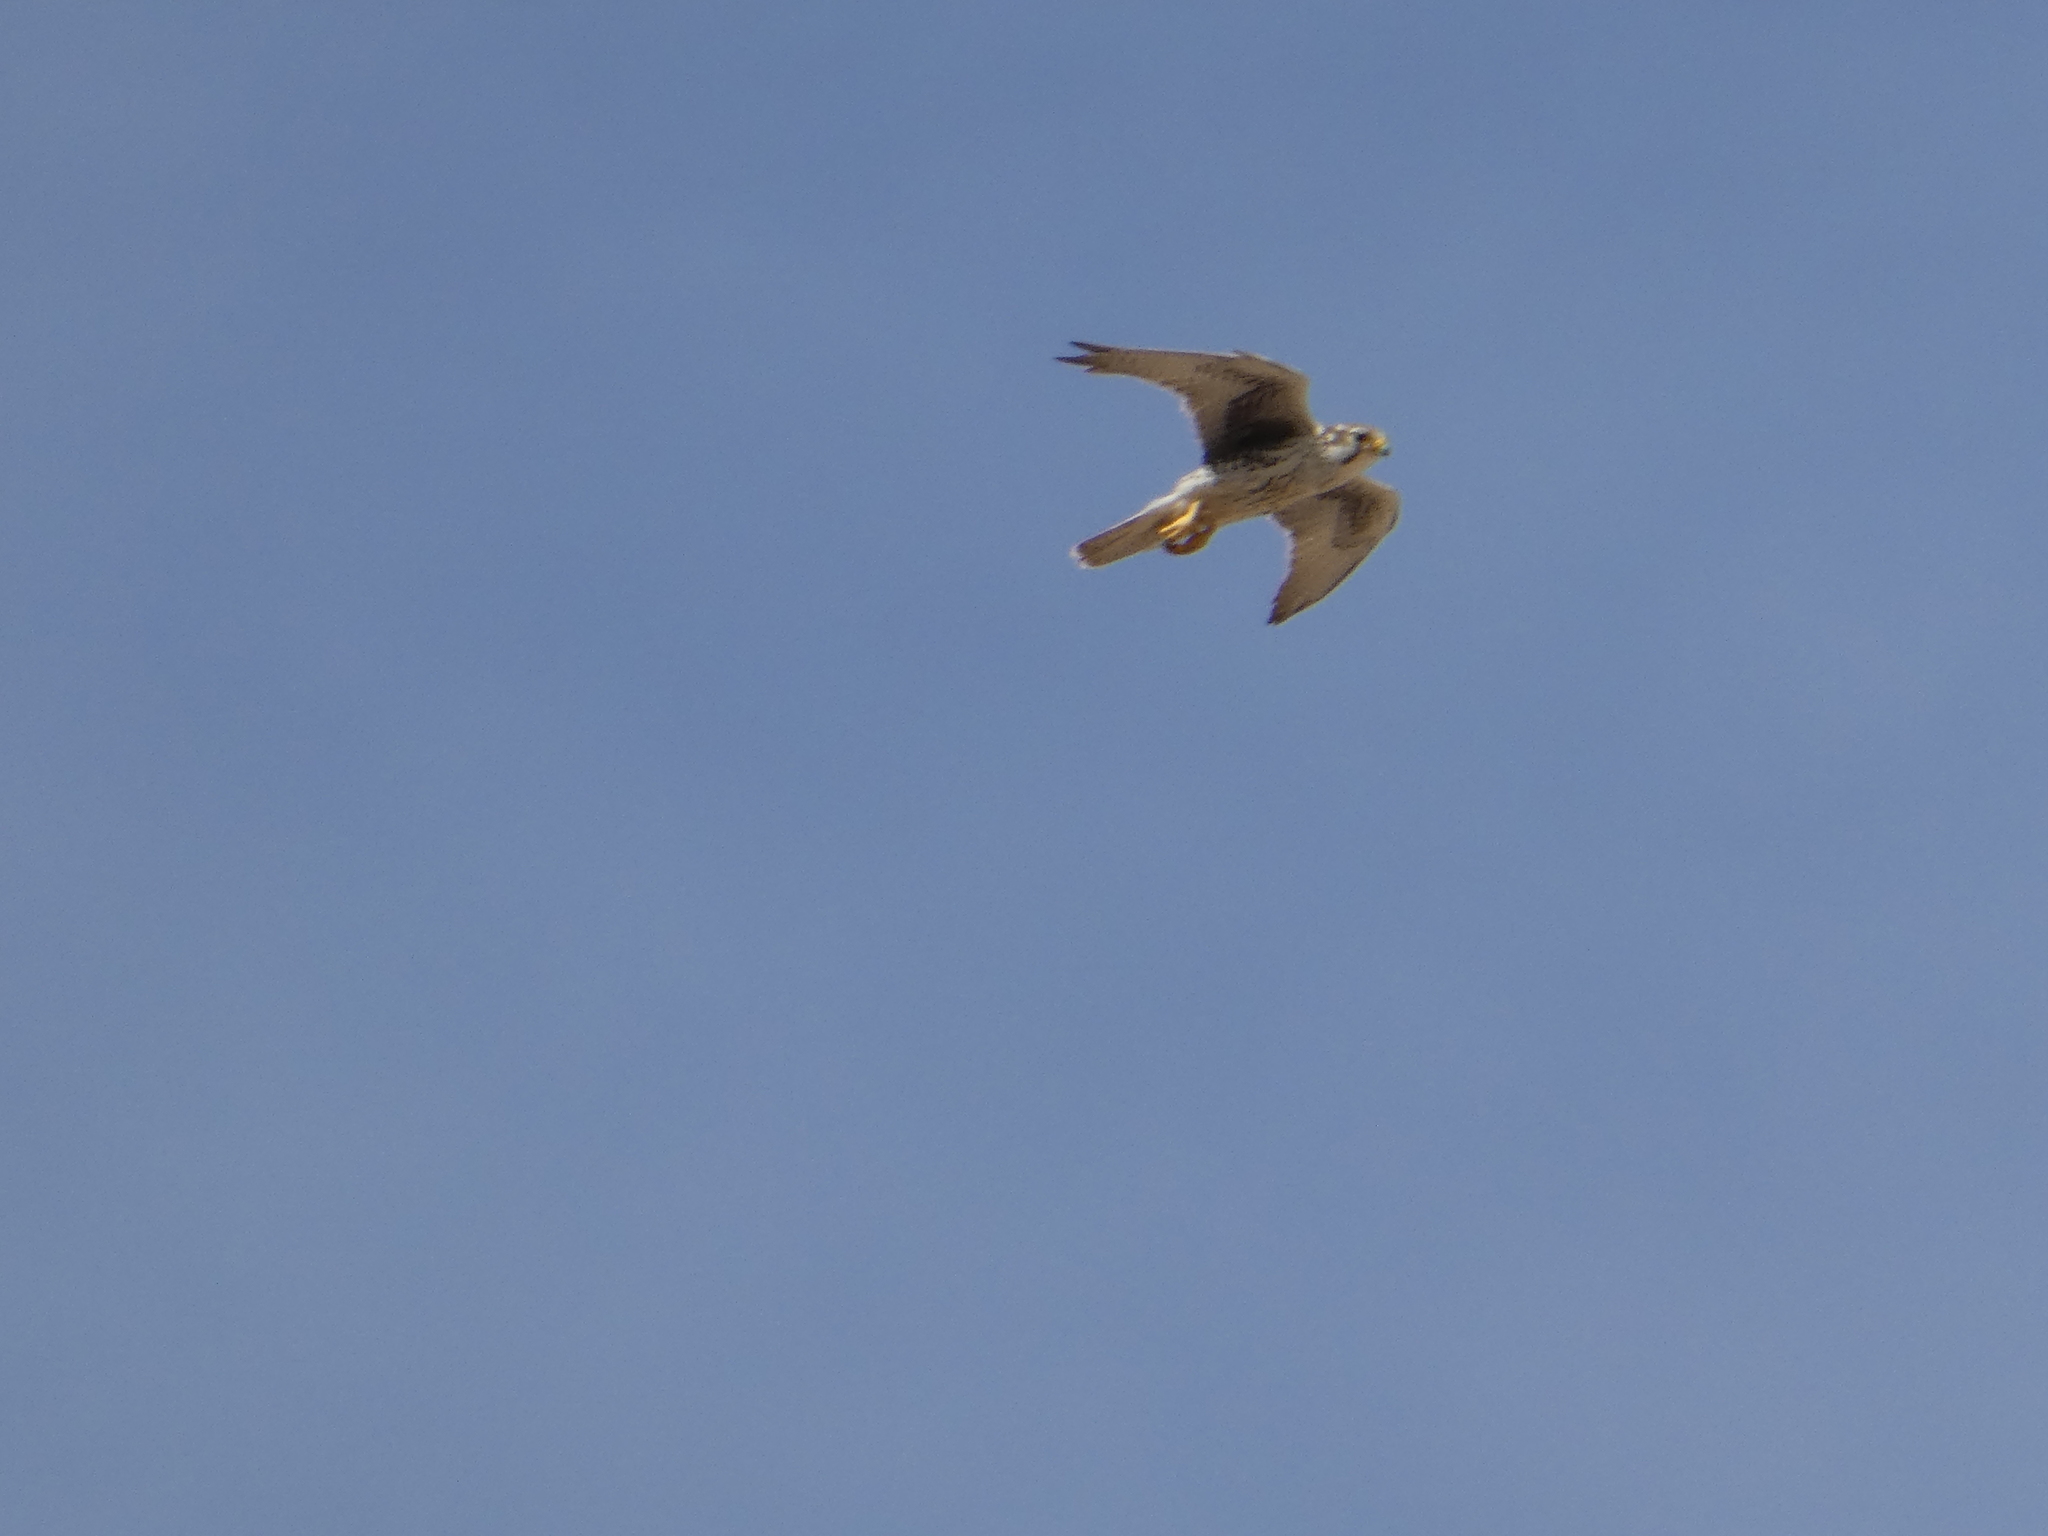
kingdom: Animalia
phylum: Chordata
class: Aves
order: Falconiformes
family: Falconidae
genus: Falco
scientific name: Falco mexicanus
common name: Prairie falcon
